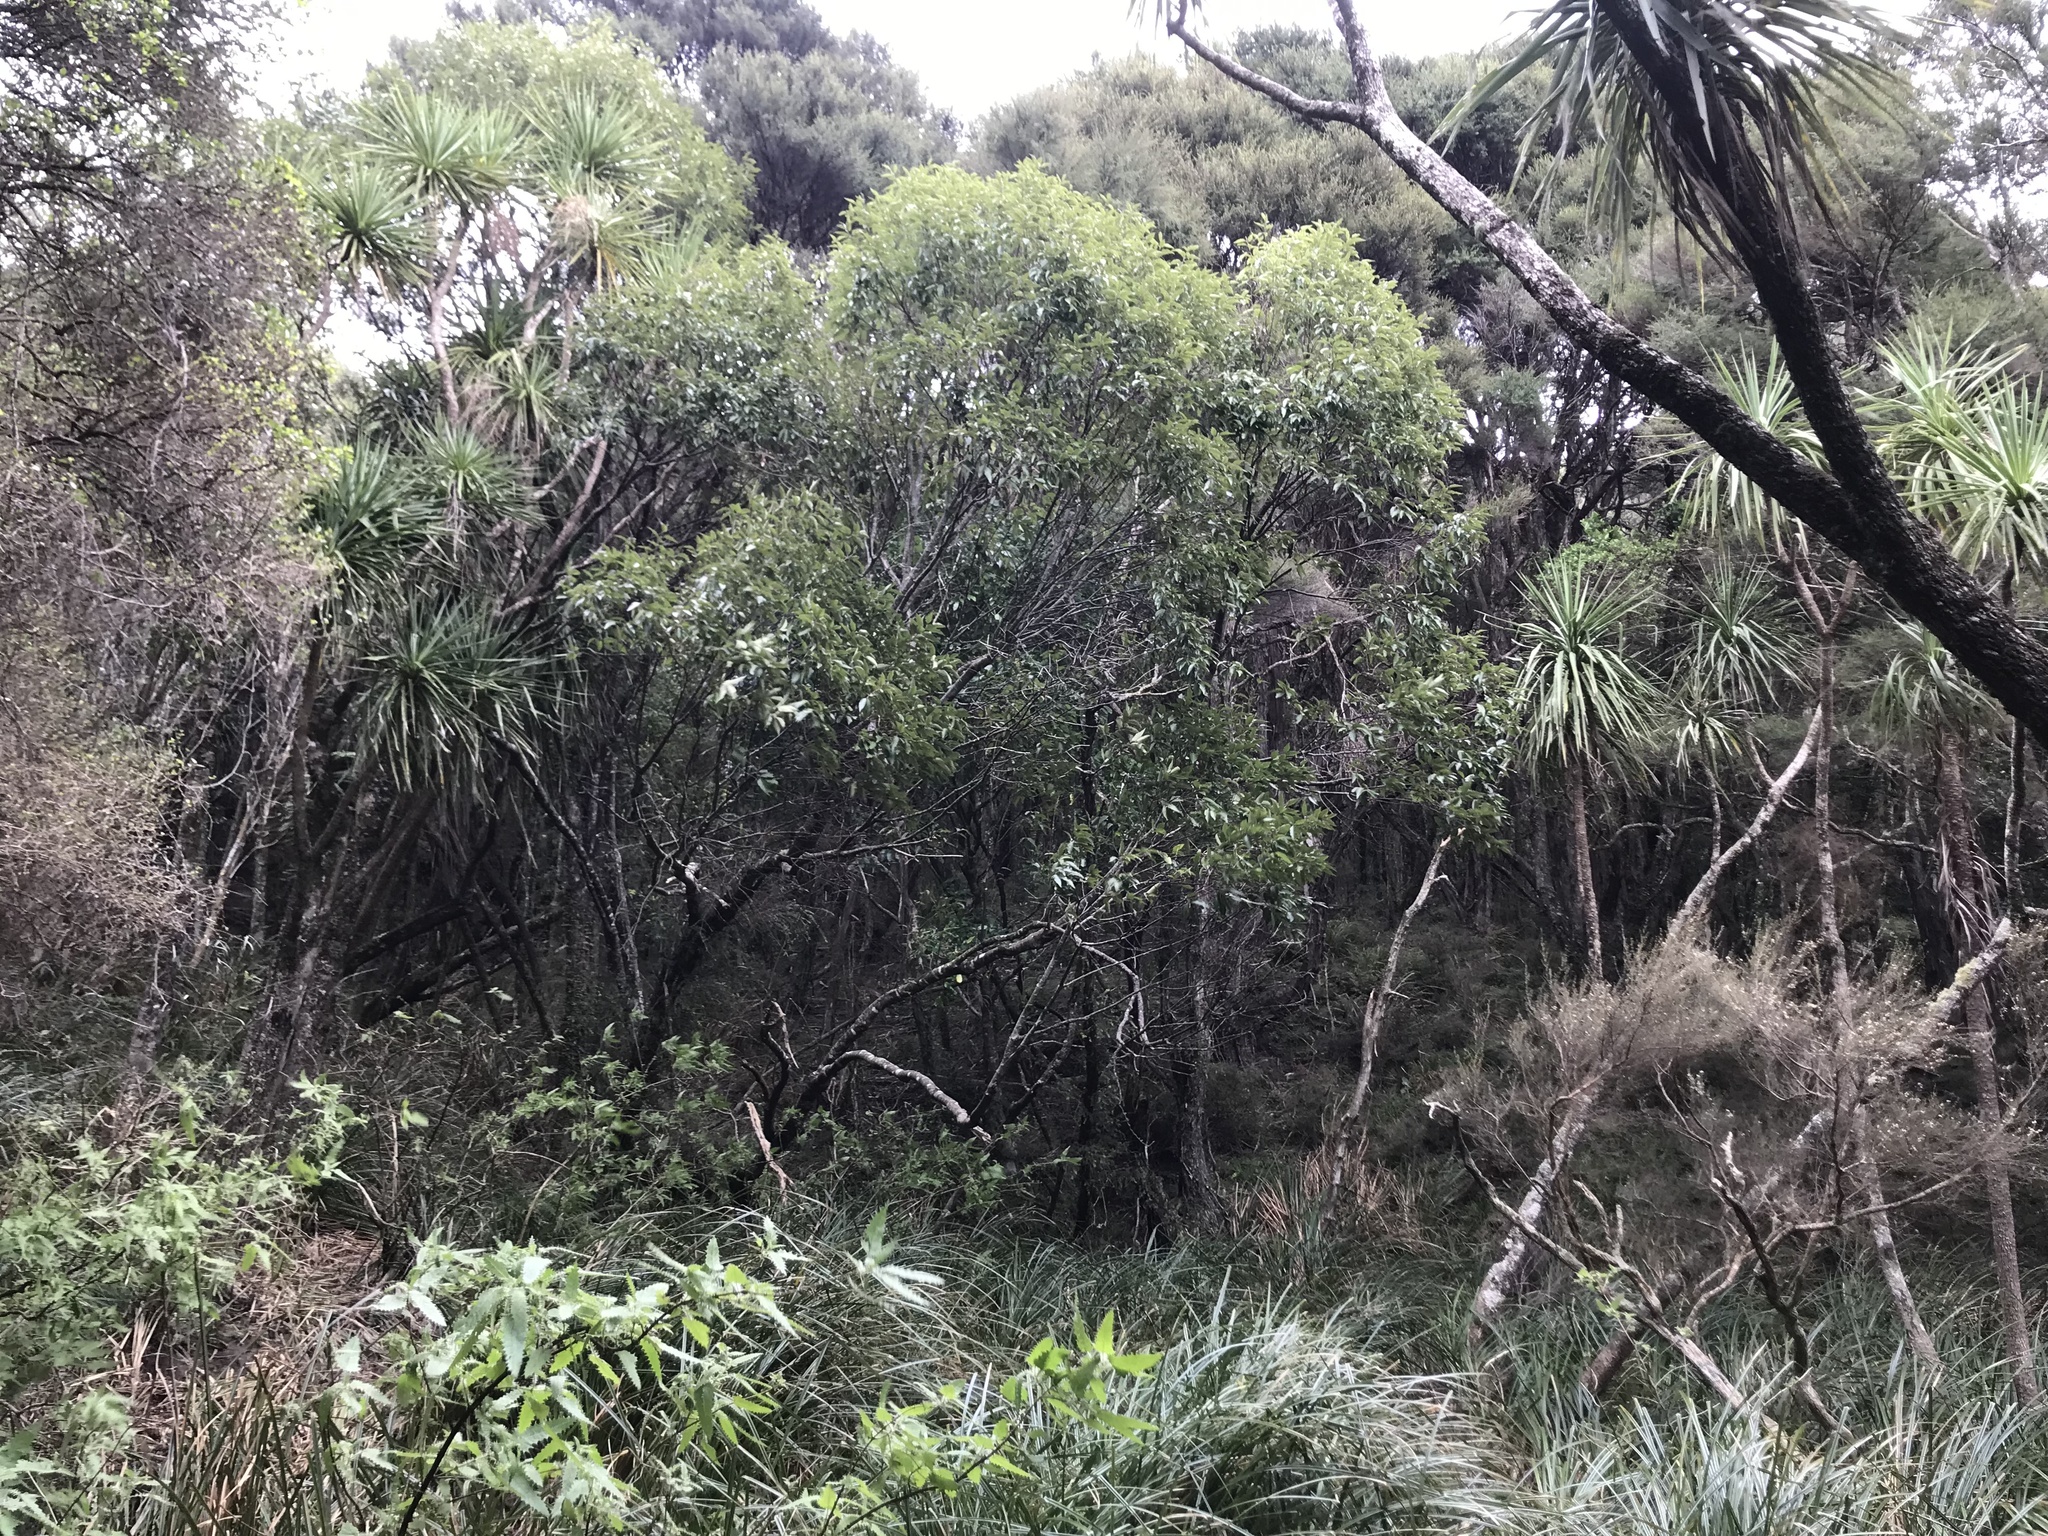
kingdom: Plantae
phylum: Tracheophyta
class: Magnoliopsida
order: Malvales
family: Malvaceae
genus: Hoheria
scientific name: Hoheria sexstylosa
